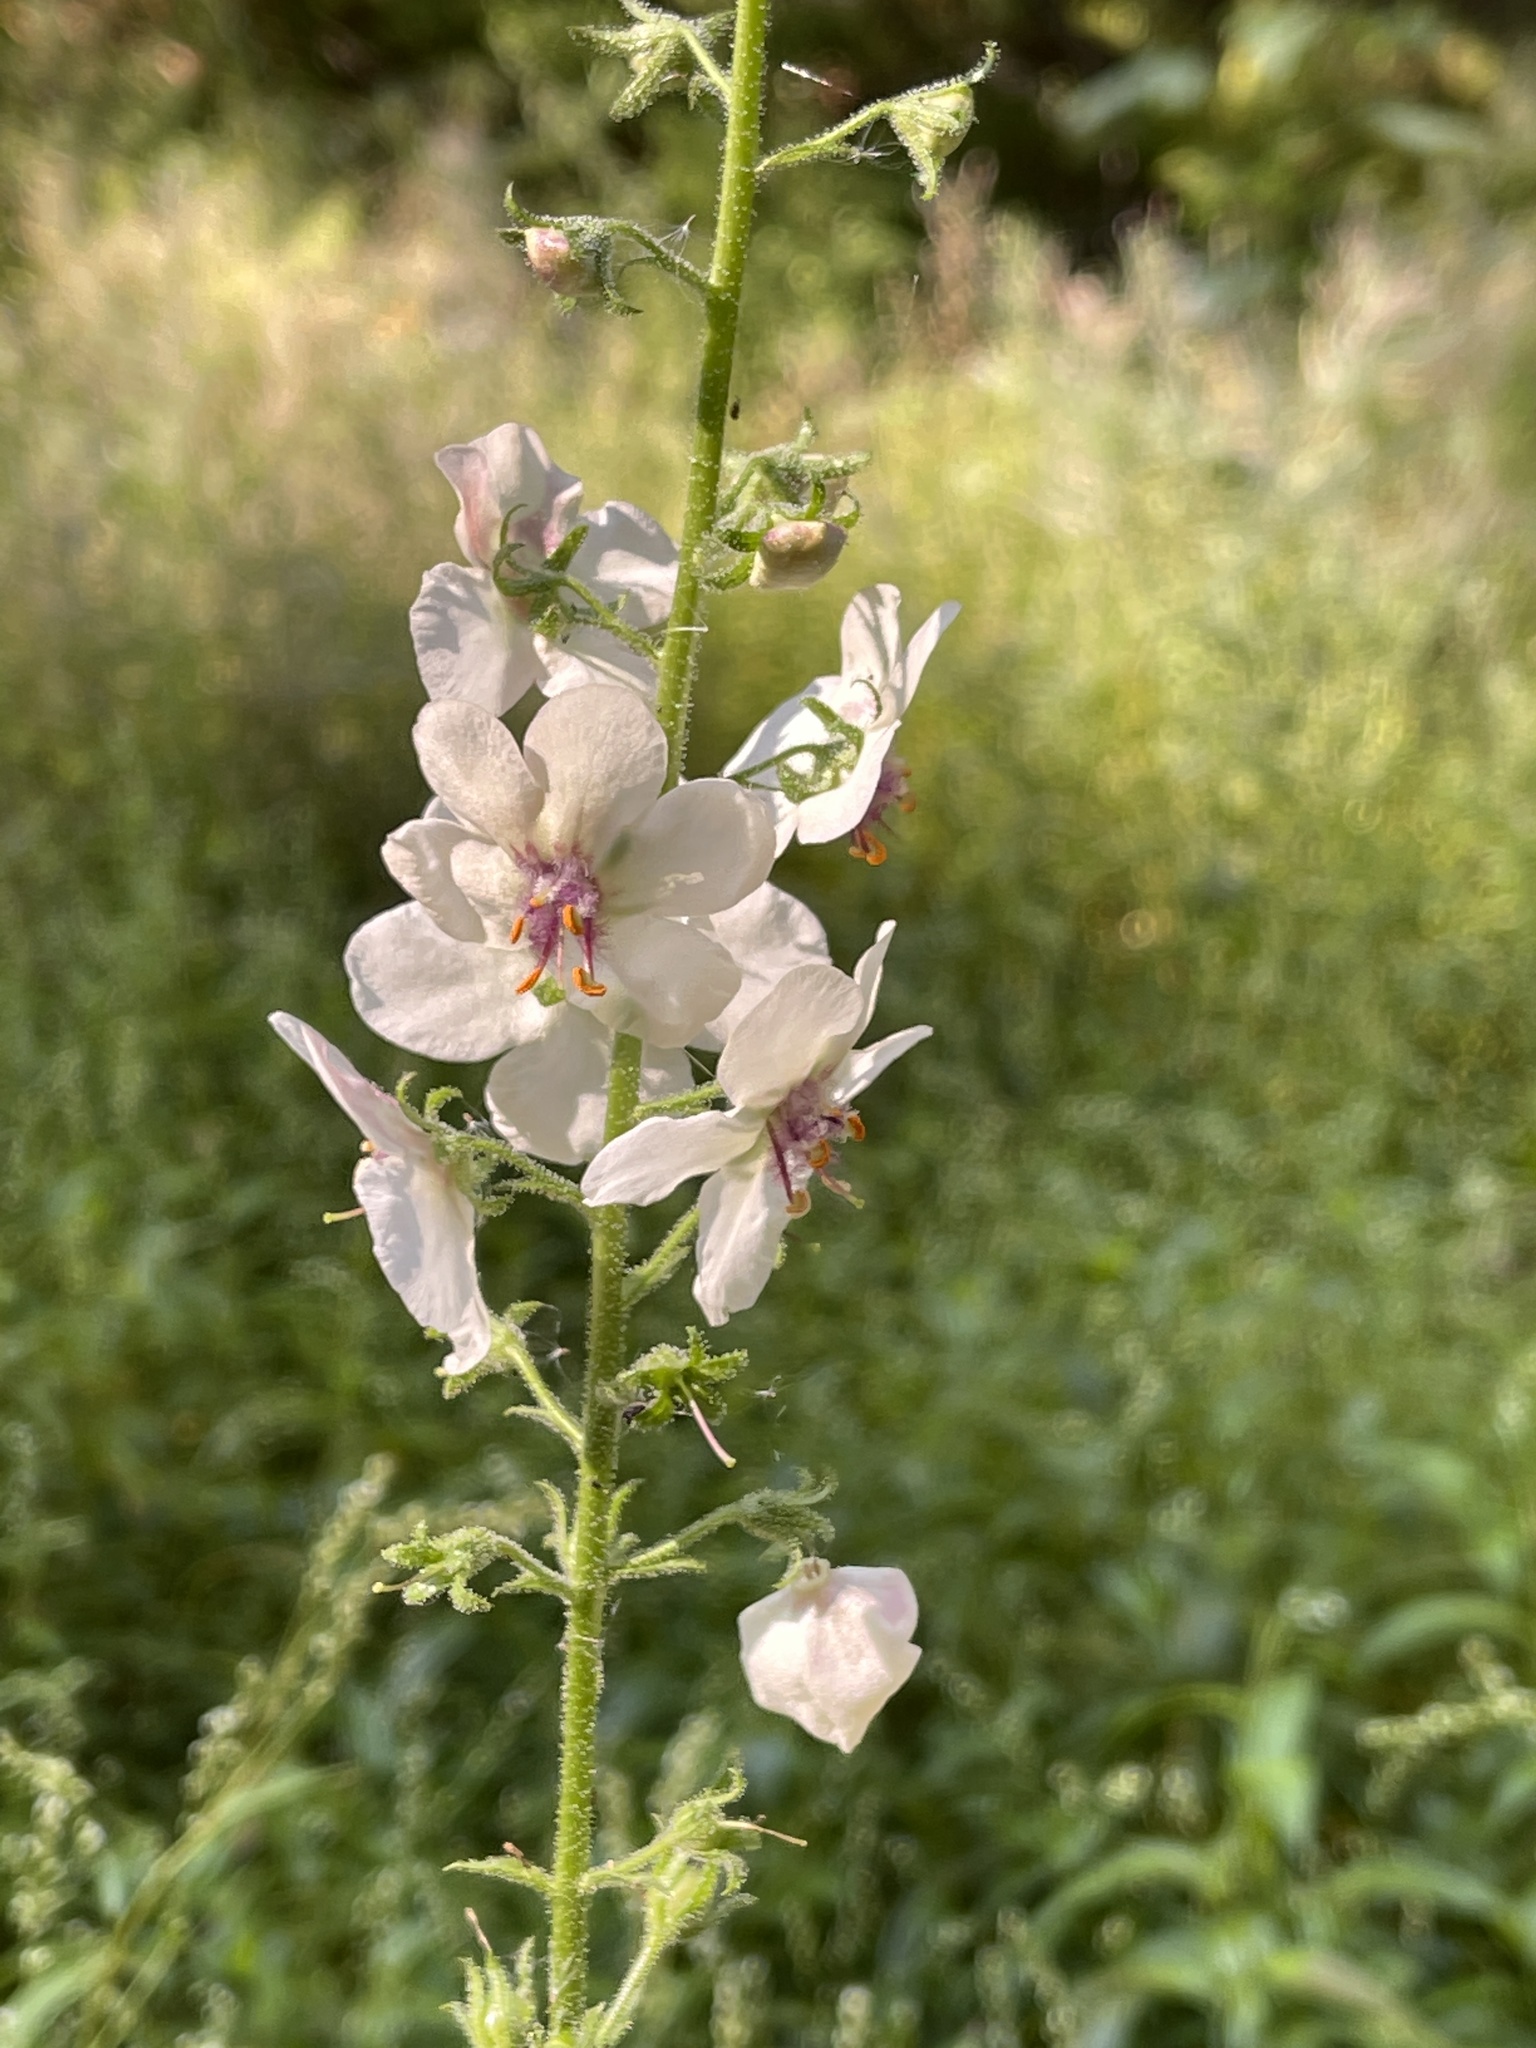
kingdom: Plantae
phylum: Tracheophyta
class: Magnoliopsida
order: Lamiales
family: Scrophulariaceae
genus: Verbascum
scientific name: Verbascum blattaria
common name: Moth mullein
